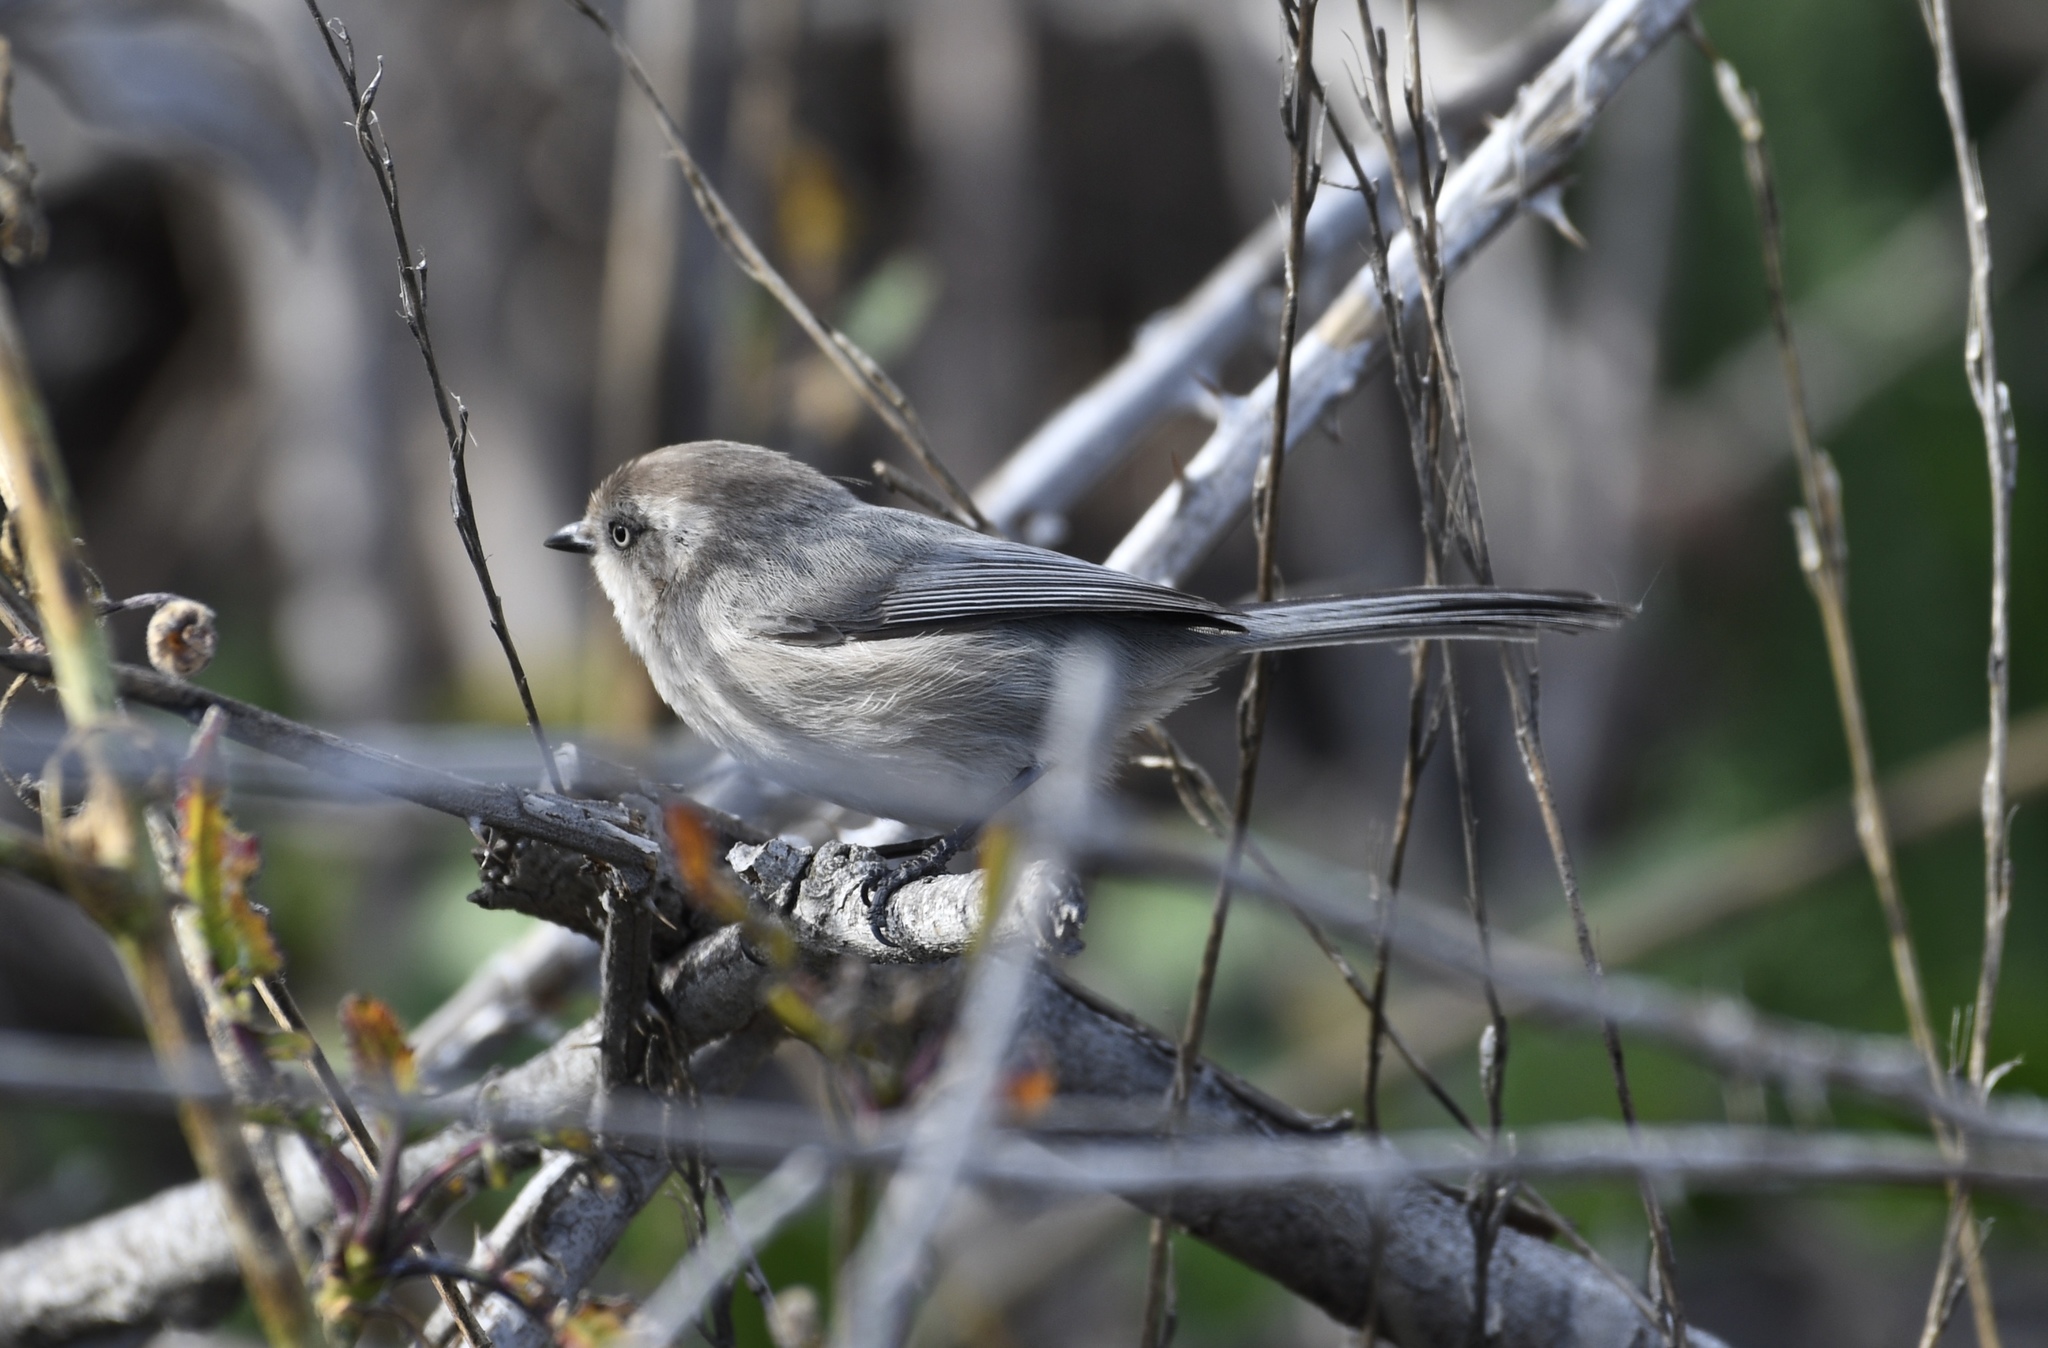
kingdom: Animalia
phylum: Chordata
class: Aves
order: Passeriformes
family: Aegithalidae
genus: Psaltriparus
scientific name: Psaltriparus minimus
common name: American bushtit
